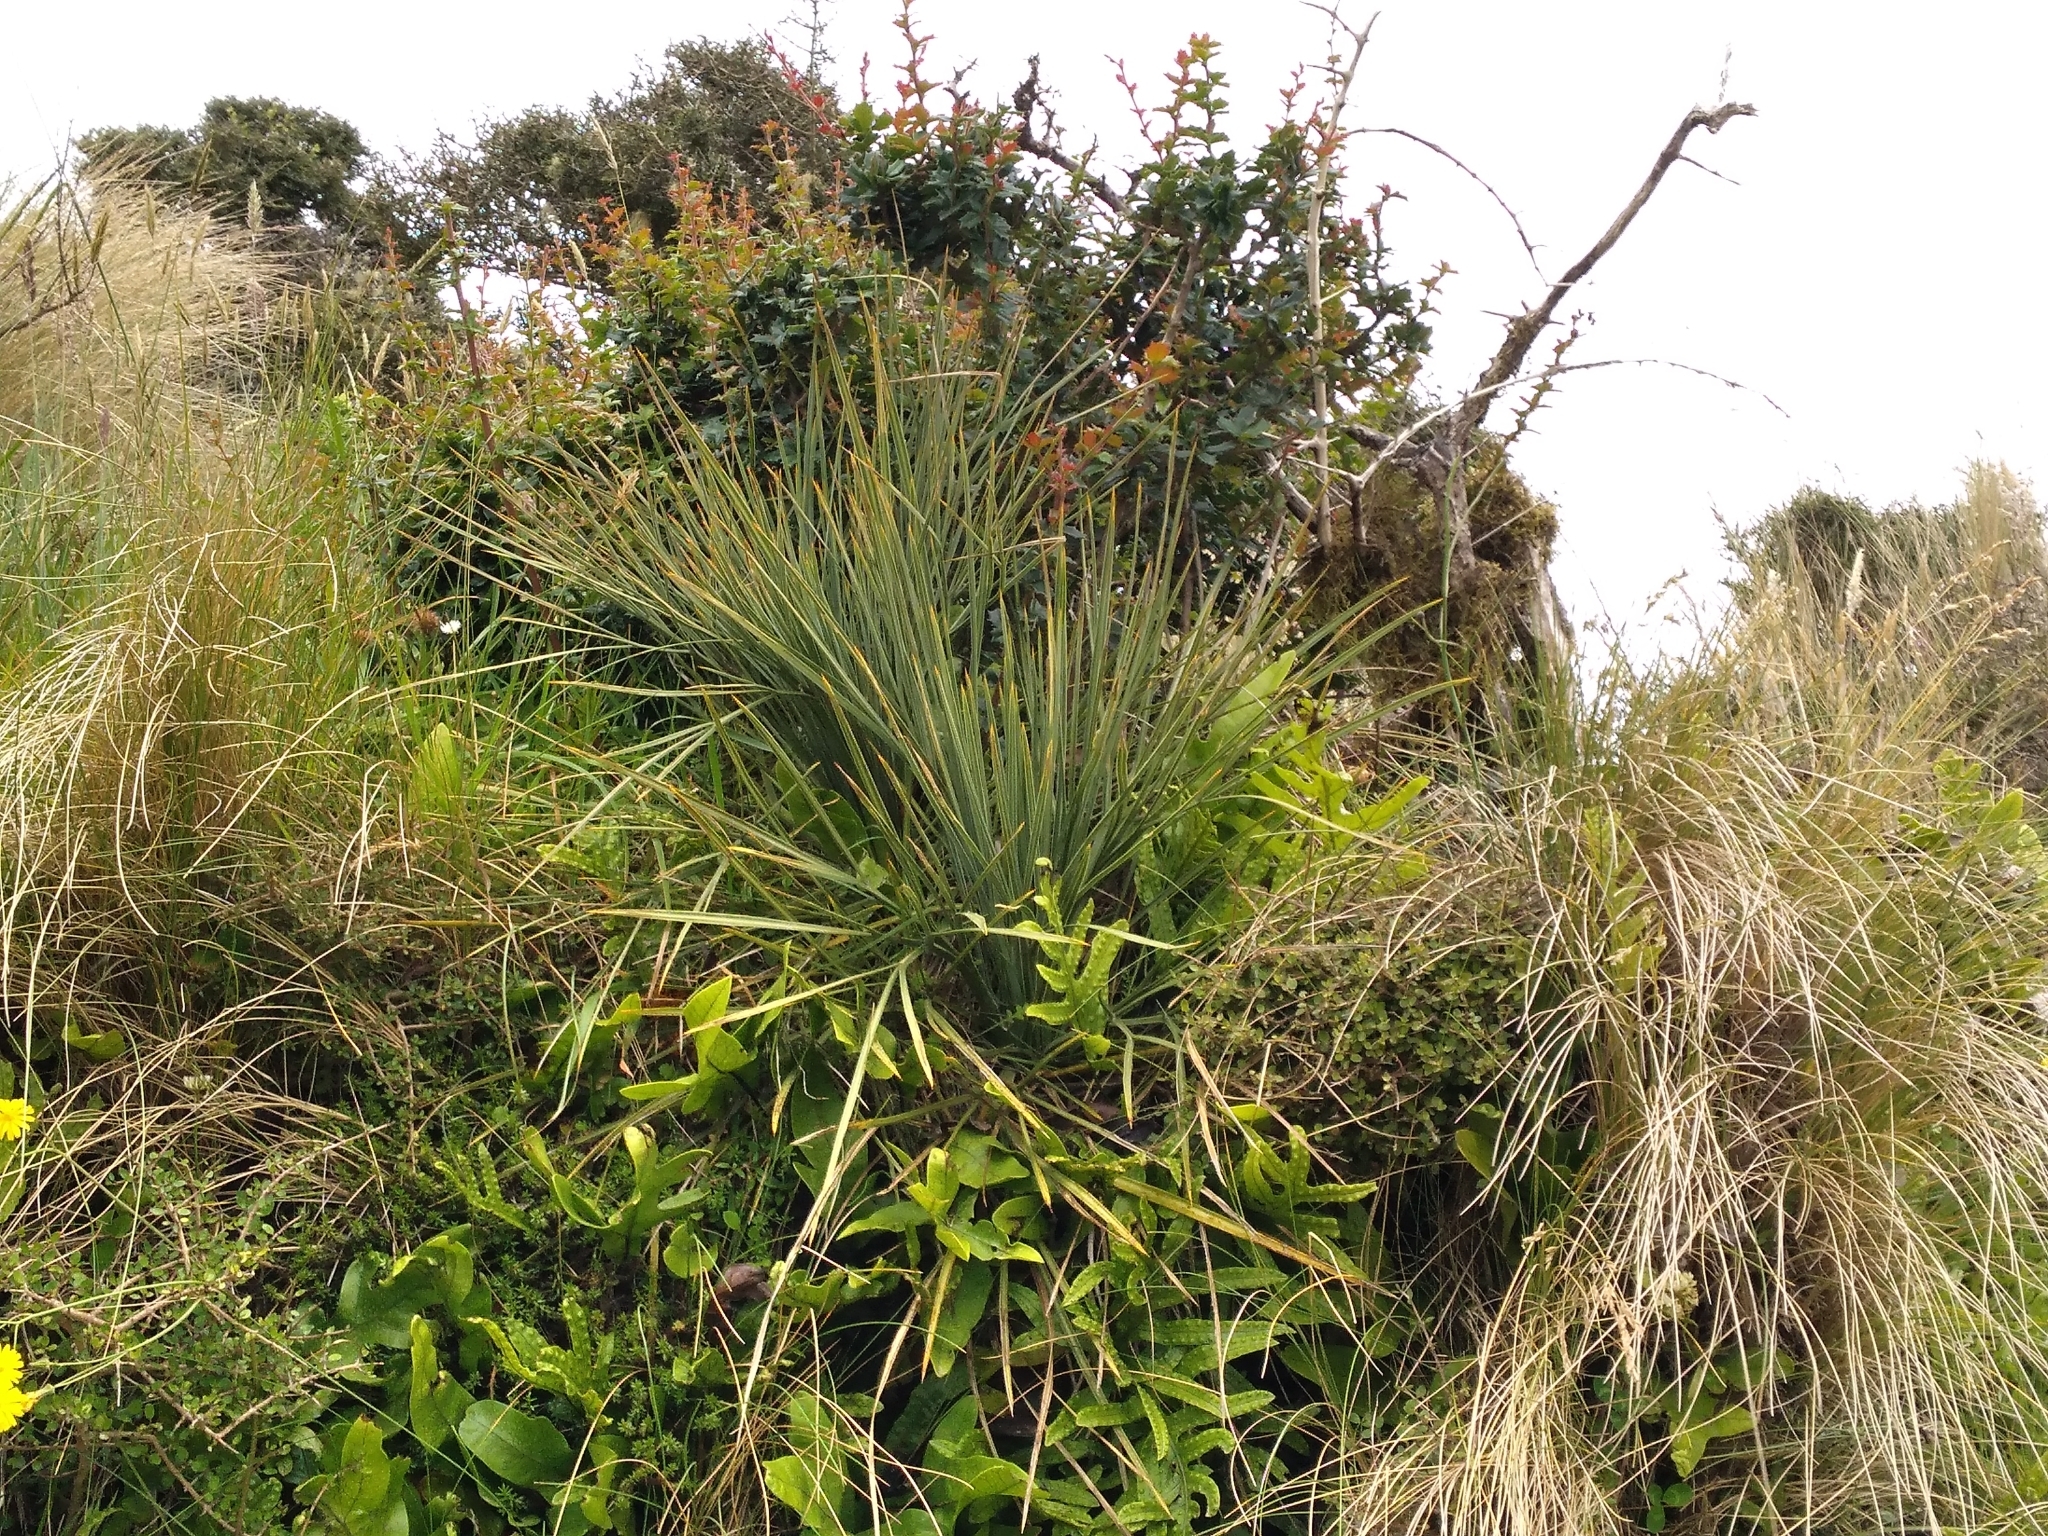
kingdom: Plantae
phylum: Tracheophyta
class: Magnoliopsida
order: Apiales
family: Apiaceae
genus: Aciphylla
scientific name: Aciphylla squarrosa
